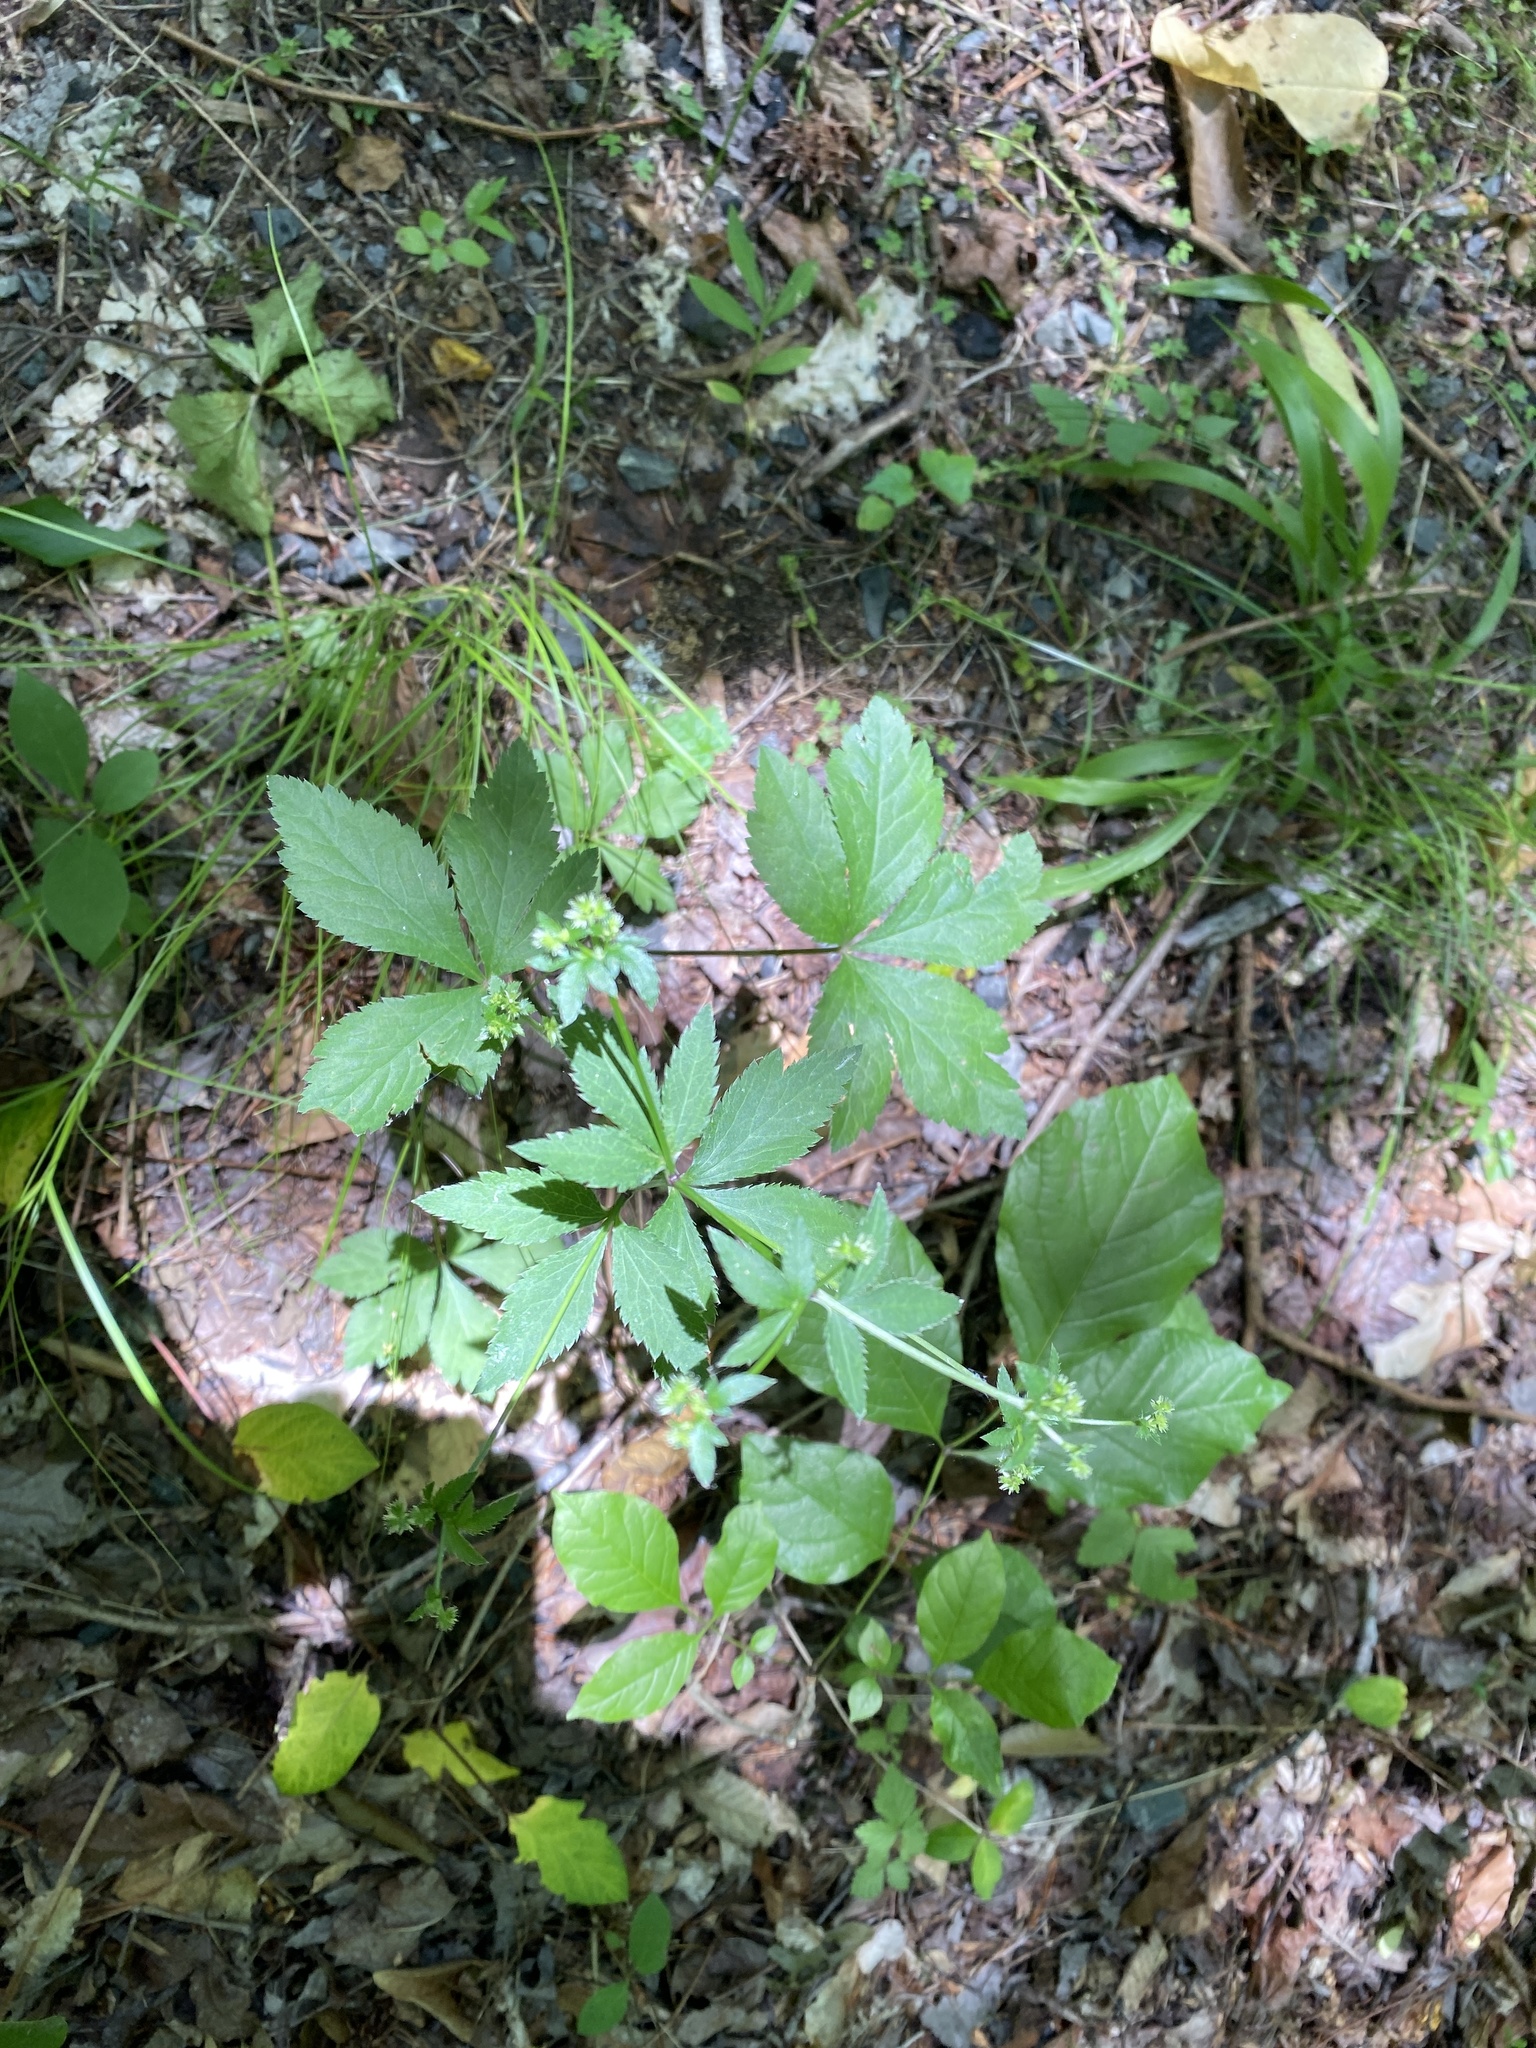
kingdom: Plantae
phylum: Tracheophyta
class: Magnoliopsida
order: Apiales
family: Apiaceae
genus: Sanicula
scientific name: Sanicula canadensis
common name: Canada sanicle
